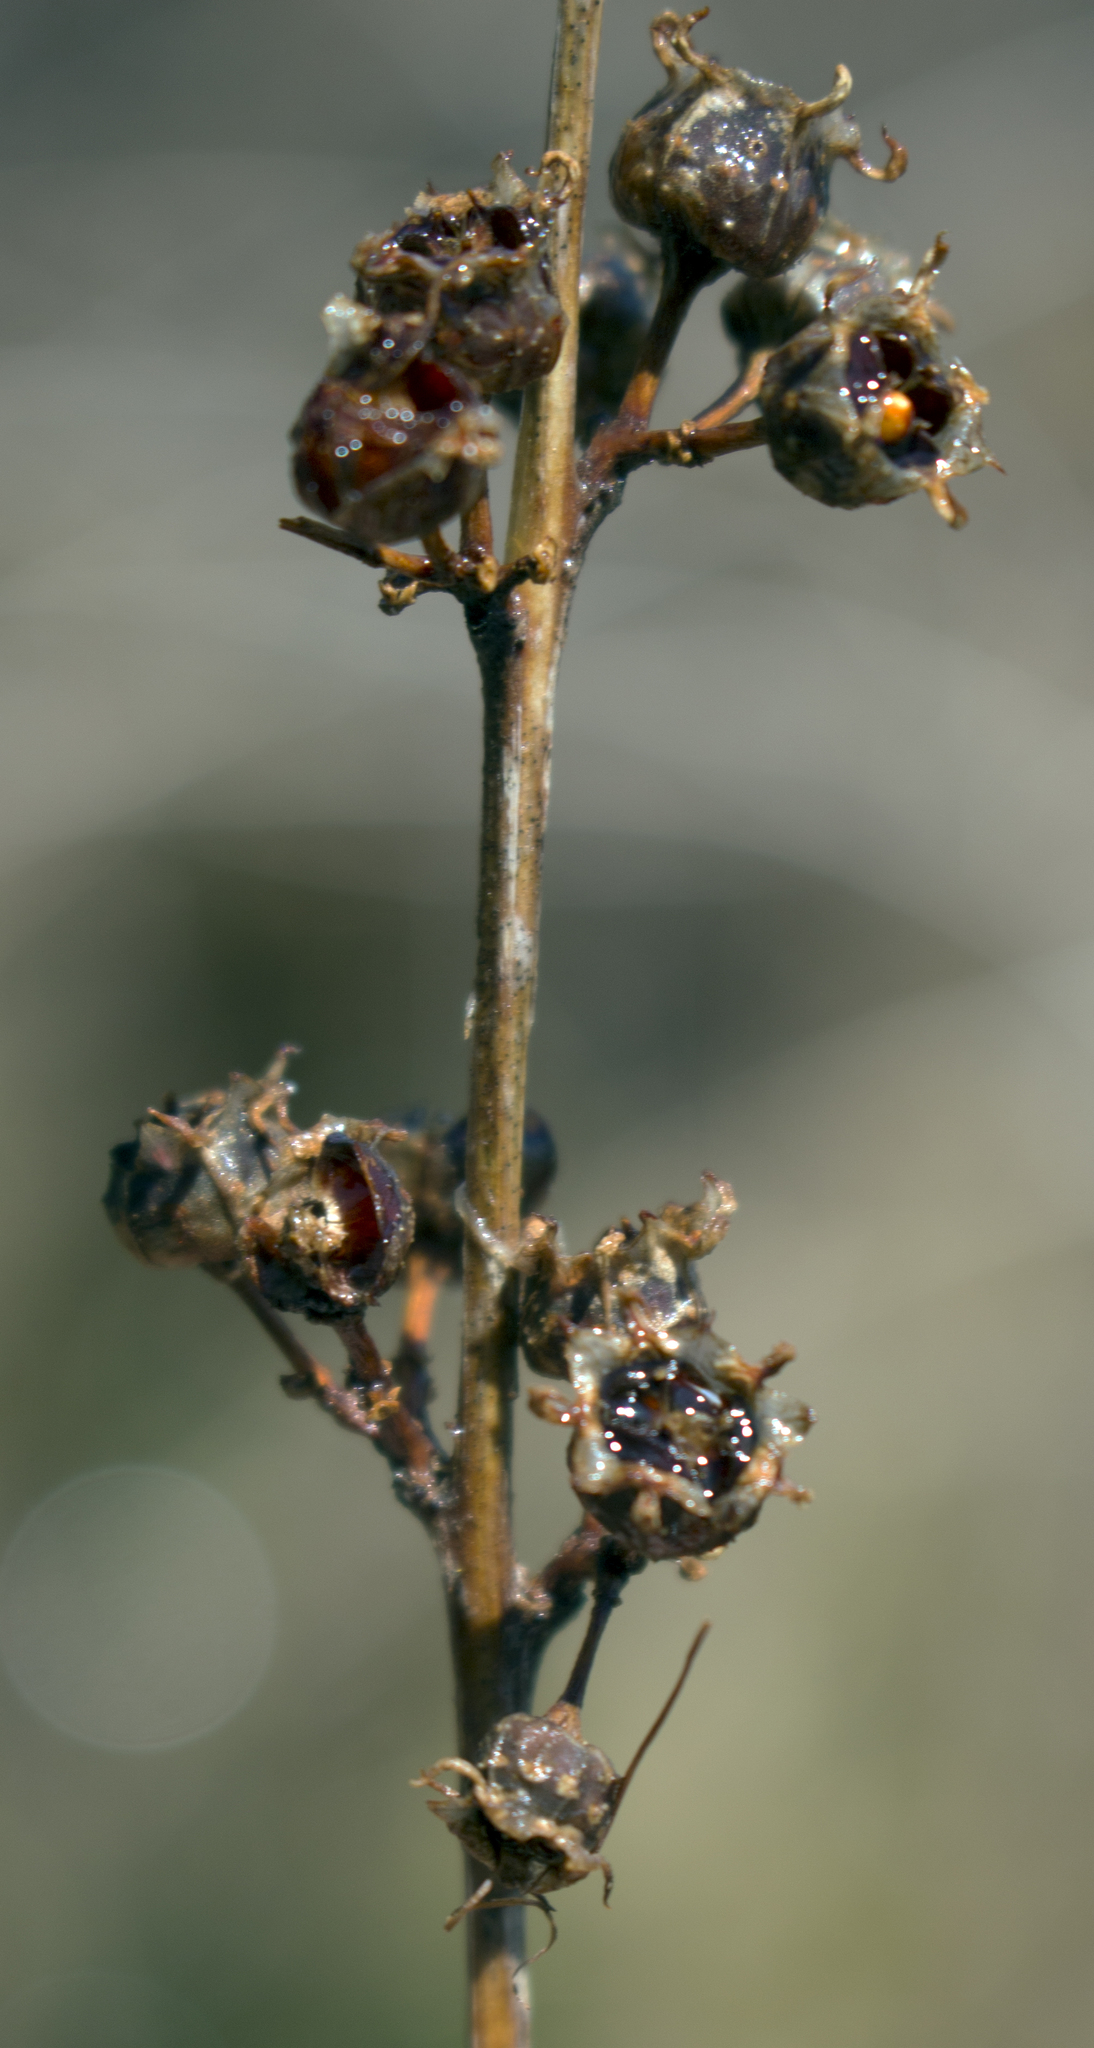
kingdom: Plantae
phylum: Tracheophyta
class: Magnoliopsida
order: Myrtales
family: Lythraceae
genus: Decodon
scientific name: Decodon verticillatus
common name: Hairy swamp loosestrife
